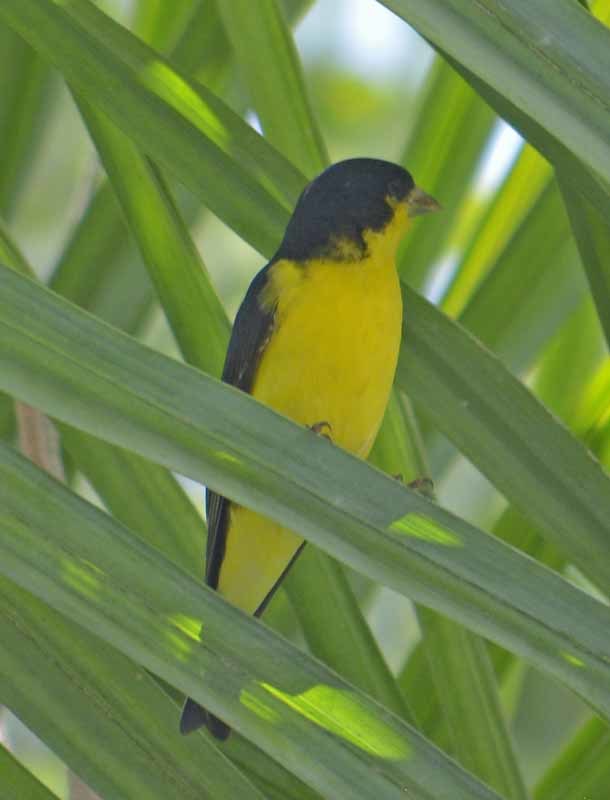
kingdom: Animalia
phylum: Chordata
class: Aves
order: Passeriformes
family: Fringillidae
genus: Spinus
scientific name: Spinus psaltria
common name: Lesser goldfinch
